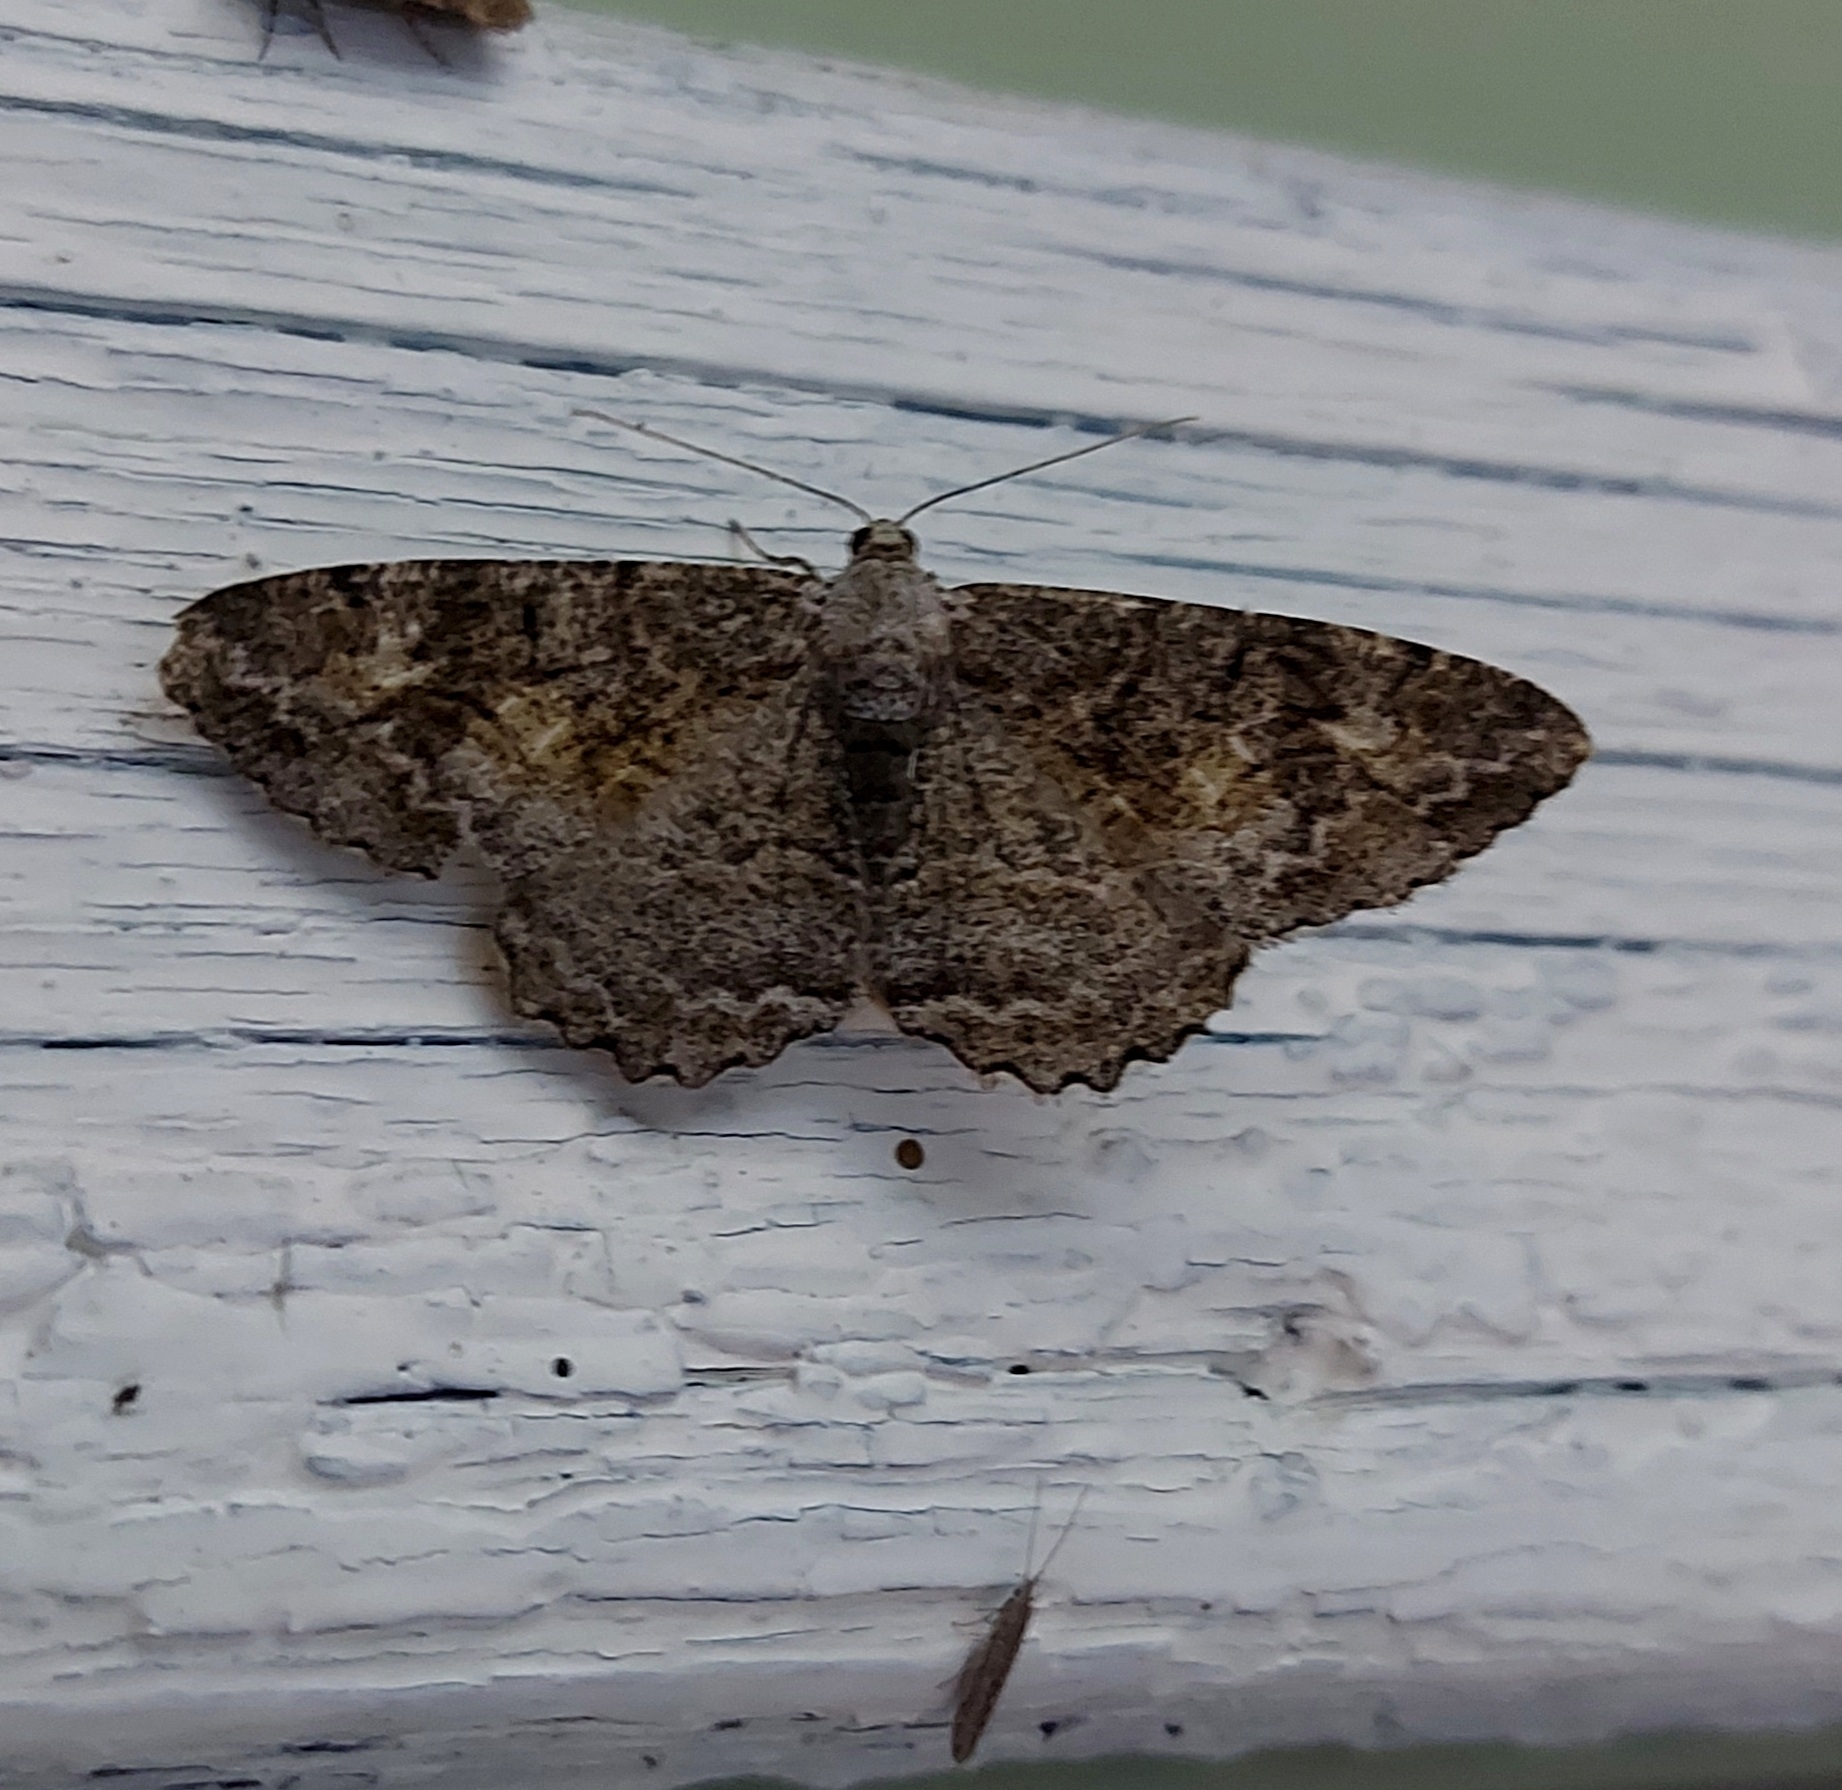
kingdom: Animalia
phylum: Arthropoda
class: Insecta
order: Lepidoptera
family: Geometridae
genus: Alcis
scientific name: Alcis repandata
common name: Mottled beauty
